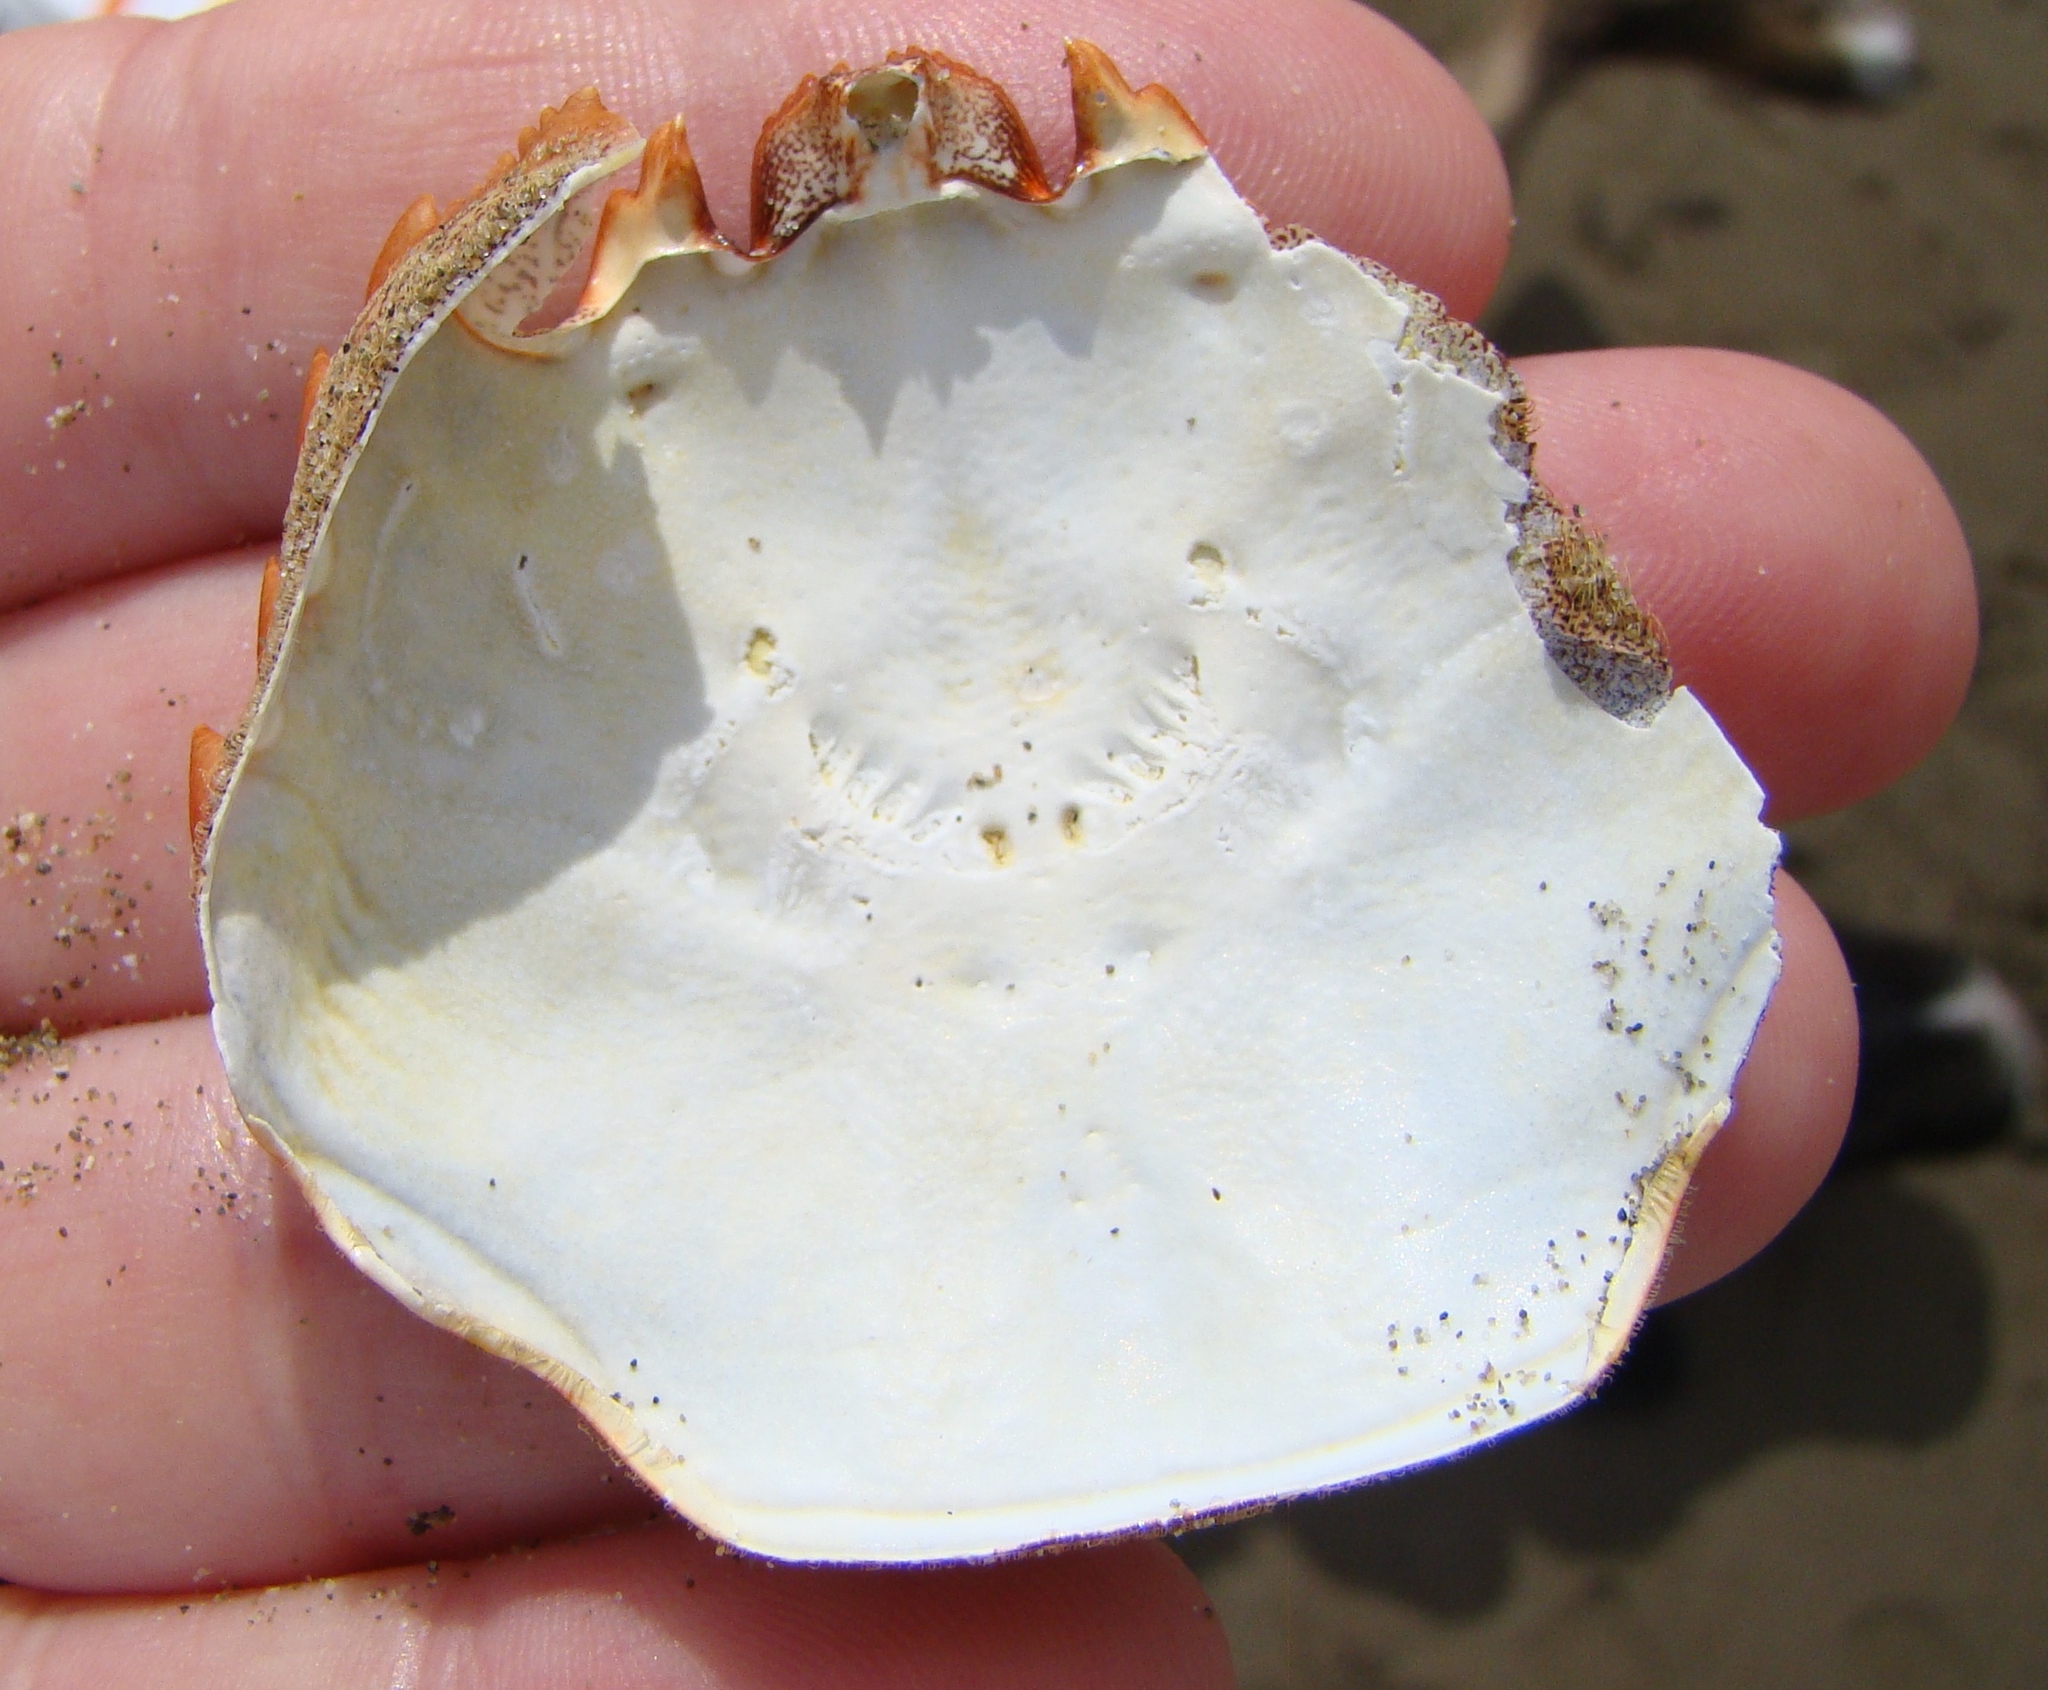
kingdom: Animalia
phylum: Arthropoda
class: Malacostraca
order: Decapoda
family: Plagusiidae
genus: Guinusia
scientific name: Guinusia chabrus
